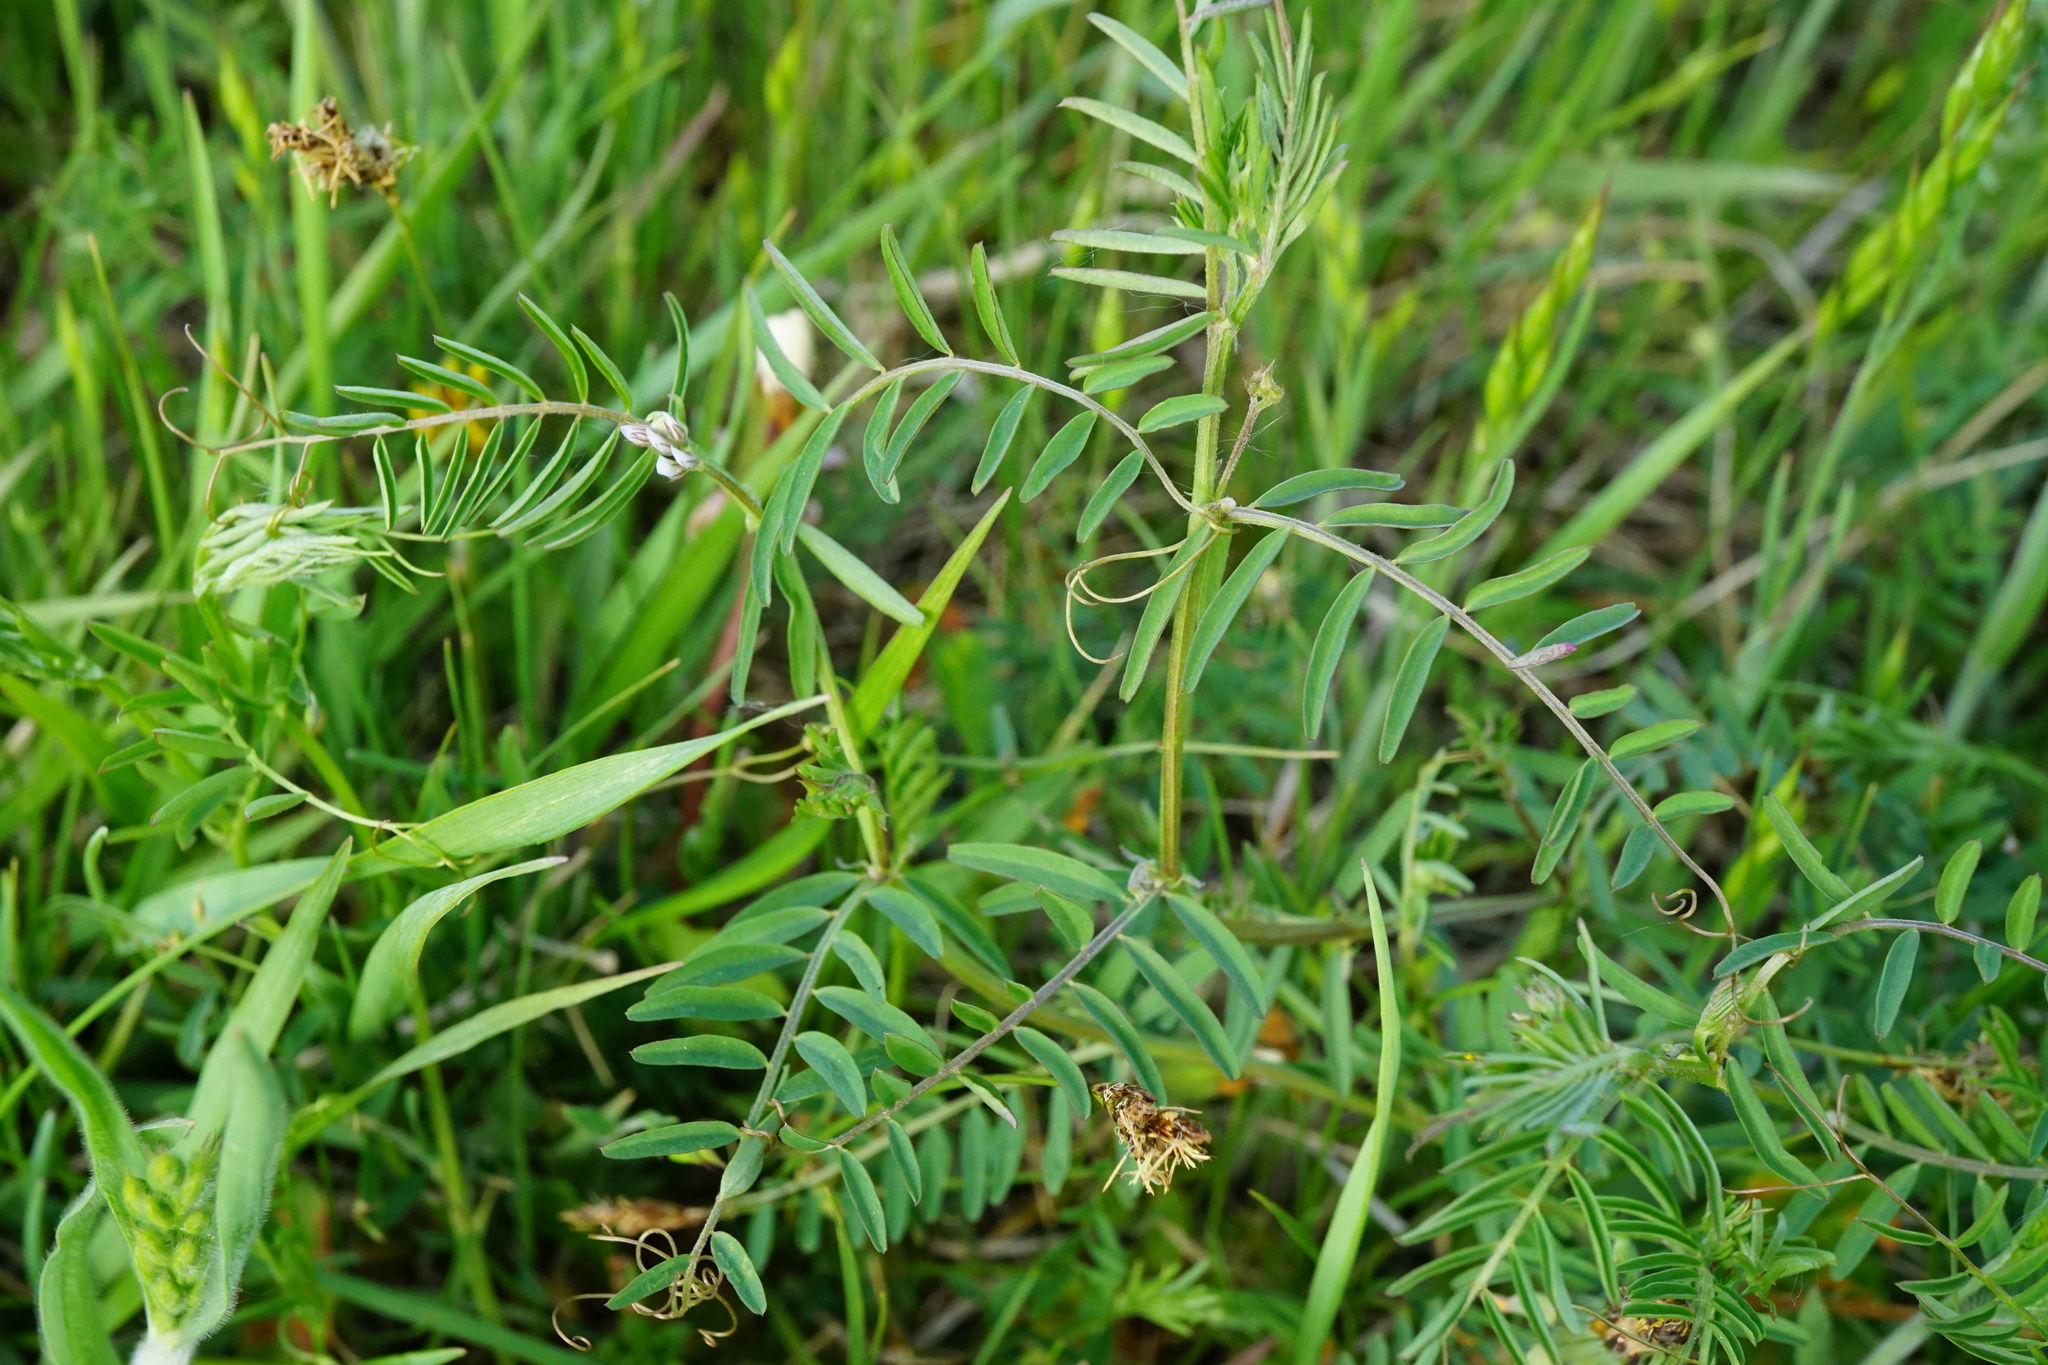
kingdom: Plantae
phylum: Tracheophyta
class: Magnoliopsida
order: Fabales
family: Fabaceae
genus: Vicia
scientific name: Vicia hirsuta
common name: Tiny vetch
